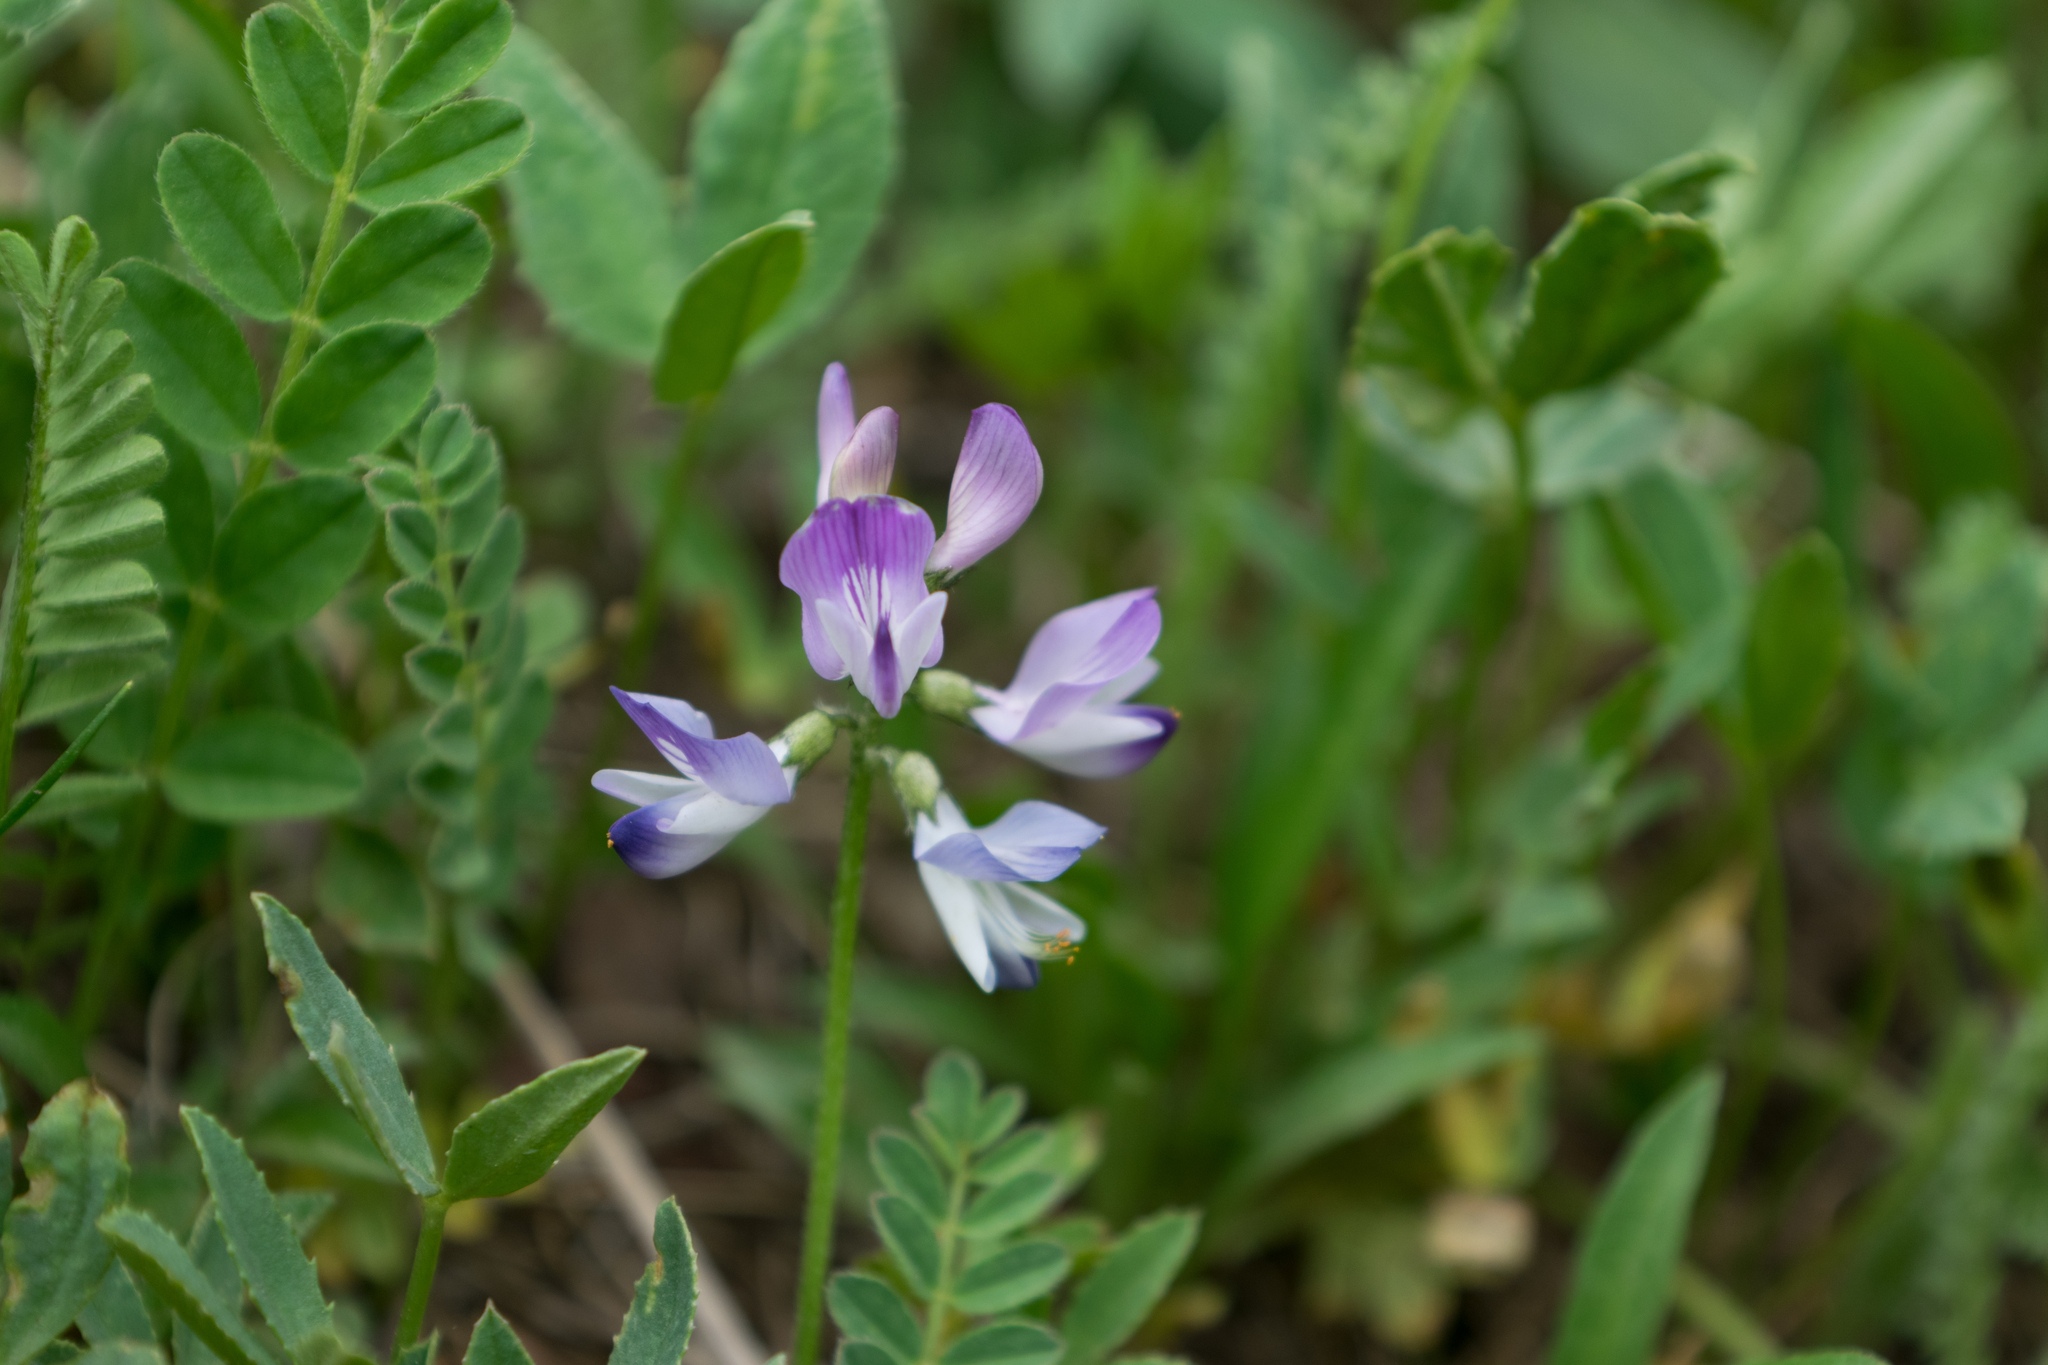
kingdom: Plantae
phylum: Tracheophyta
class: Magnoliopsida
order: Fabales
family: Fabaceae
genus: Astragalus
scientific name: Astragalus alpinus
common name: Alpine milk-vetch
